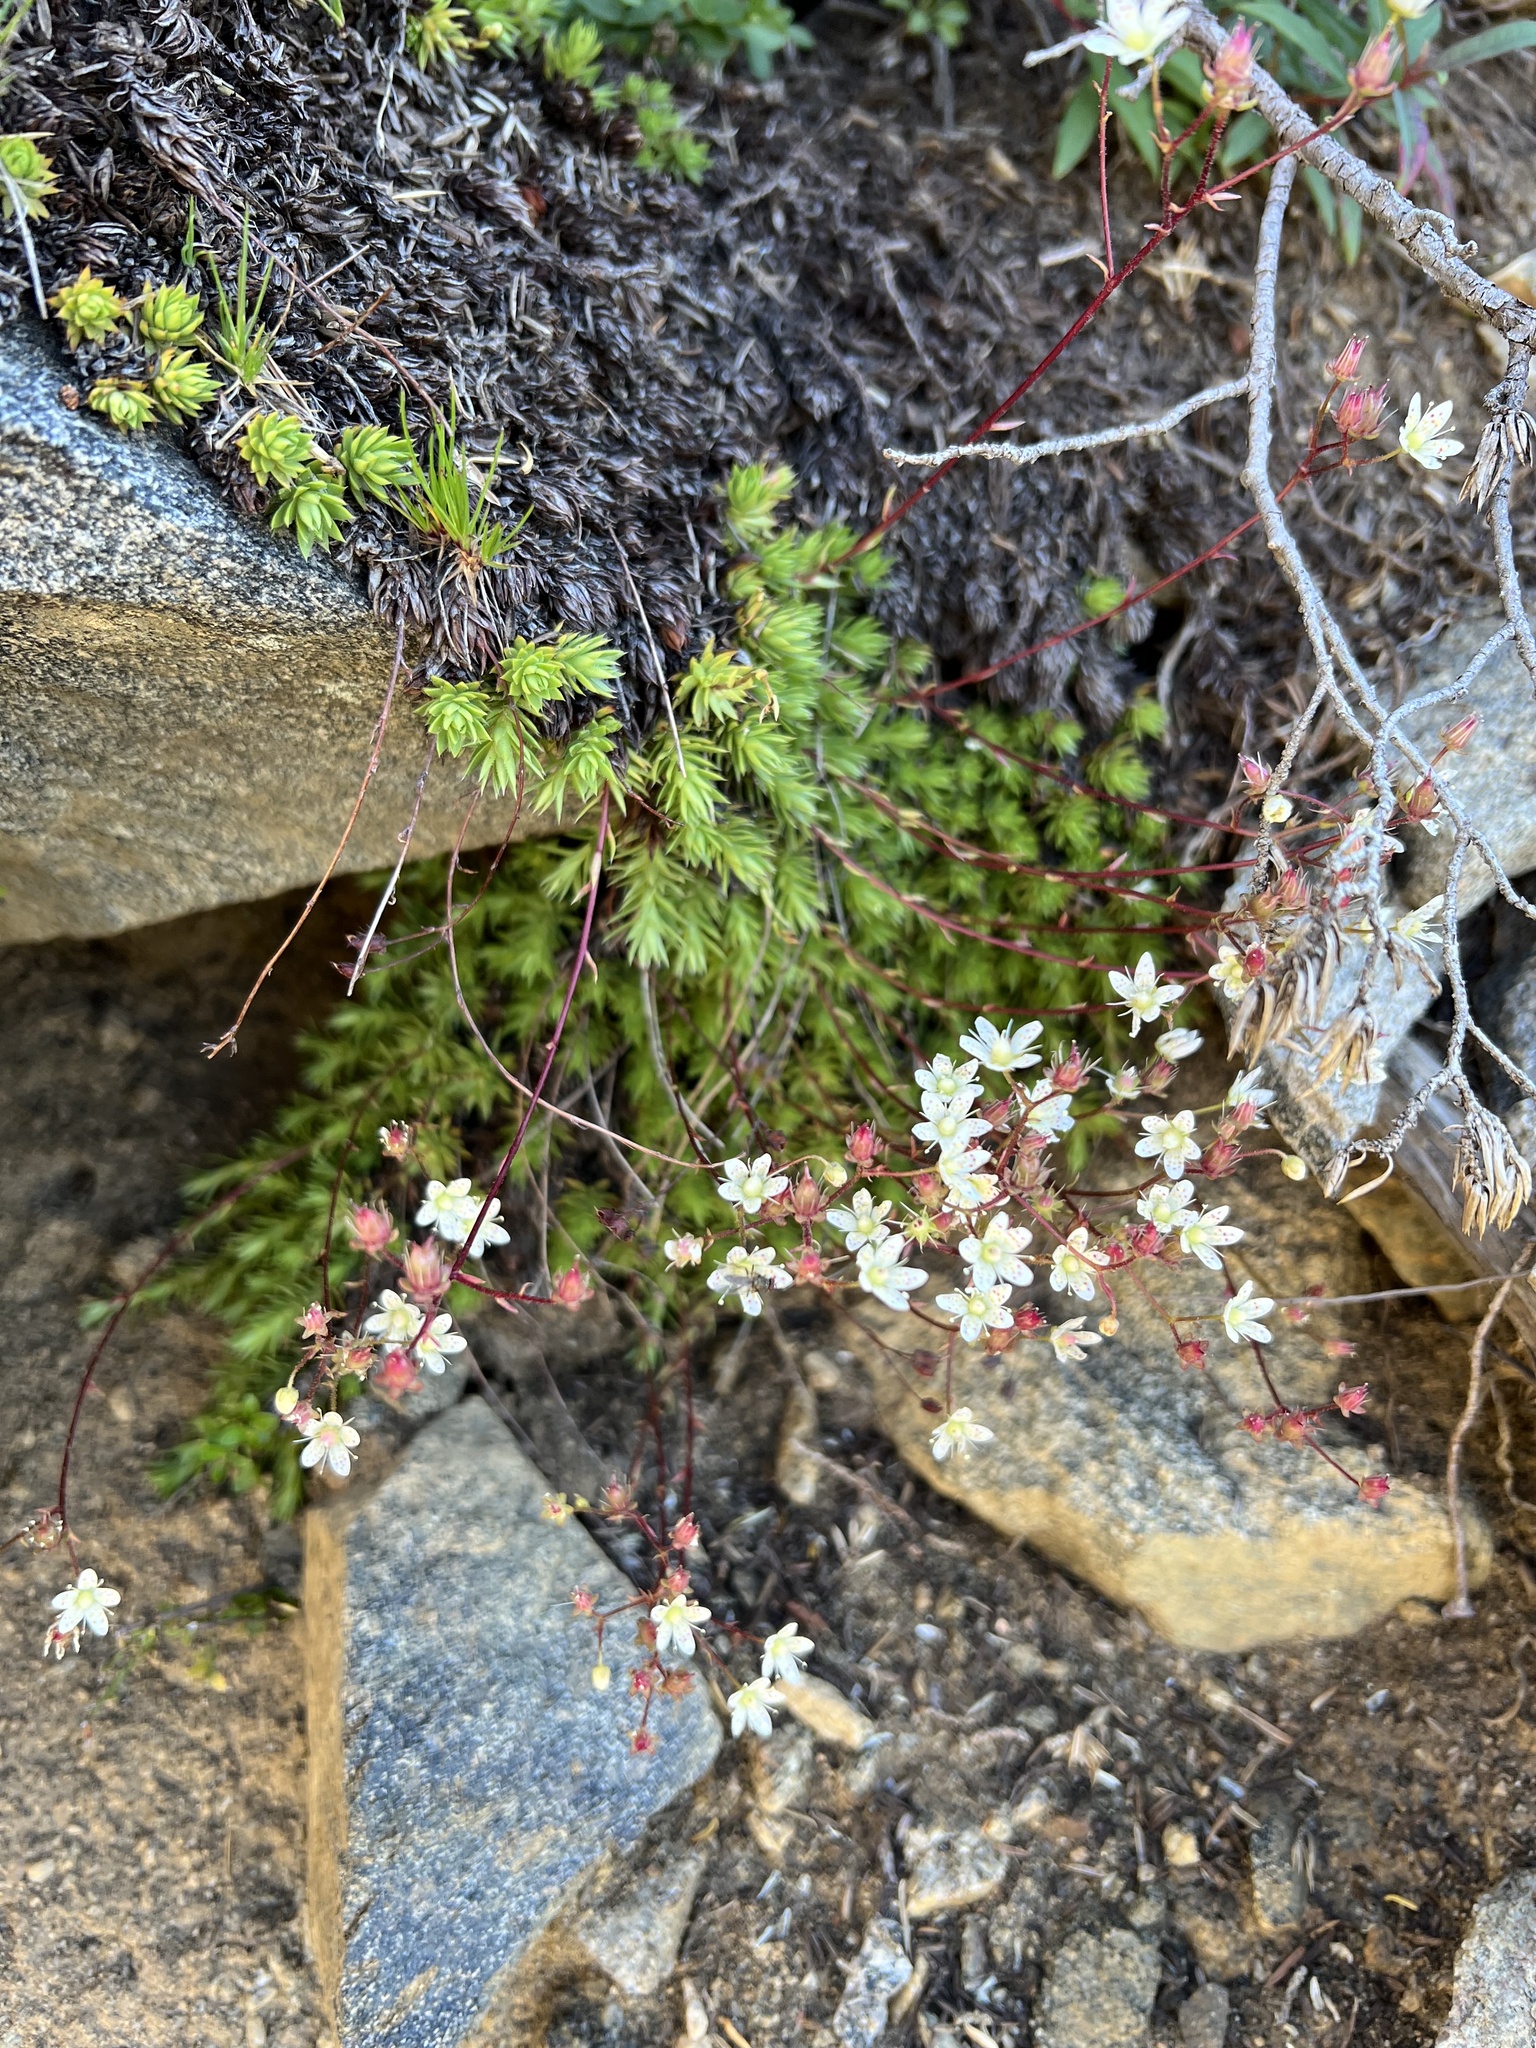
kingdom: Plantae
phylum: Tracheophyta
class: Magnoliopsida
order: Saxifragales
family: Saxifragaceae
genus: Saxifraga
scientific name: Saxifraga bronchialis
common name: Matted saxifrage
